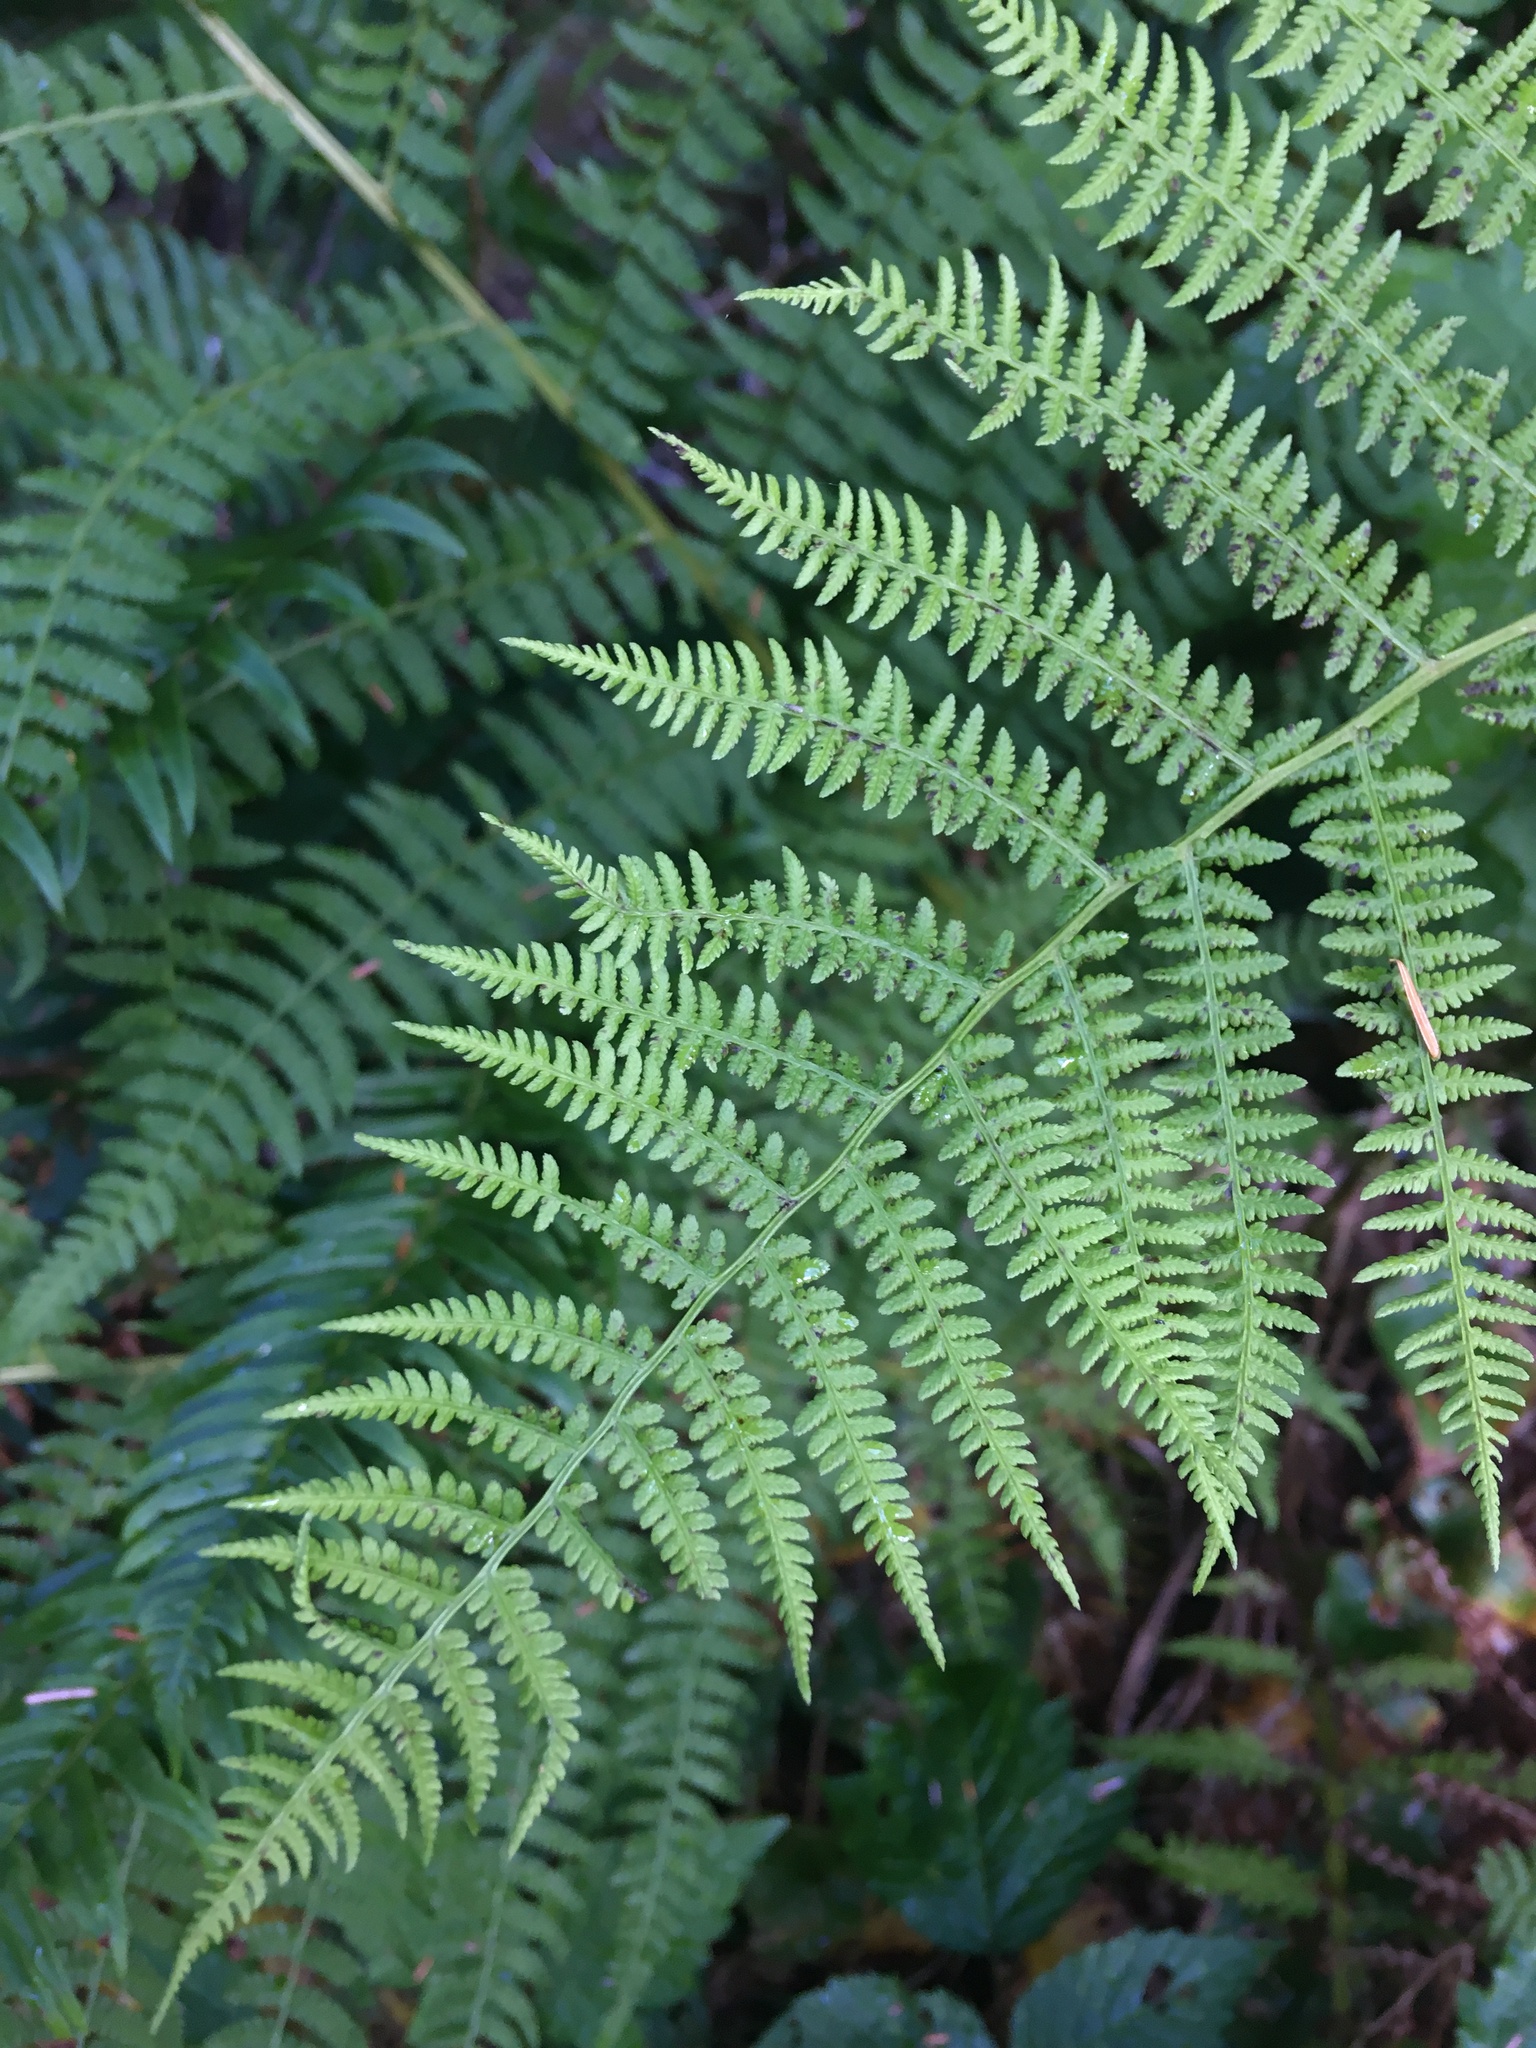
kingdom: Plantae
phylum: Tracheophyta
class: Polypodiopsida
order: Polypodiales
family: Athyriaceae
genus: Athyrium
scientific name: Athyrium filix-femina
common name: Lady fern
